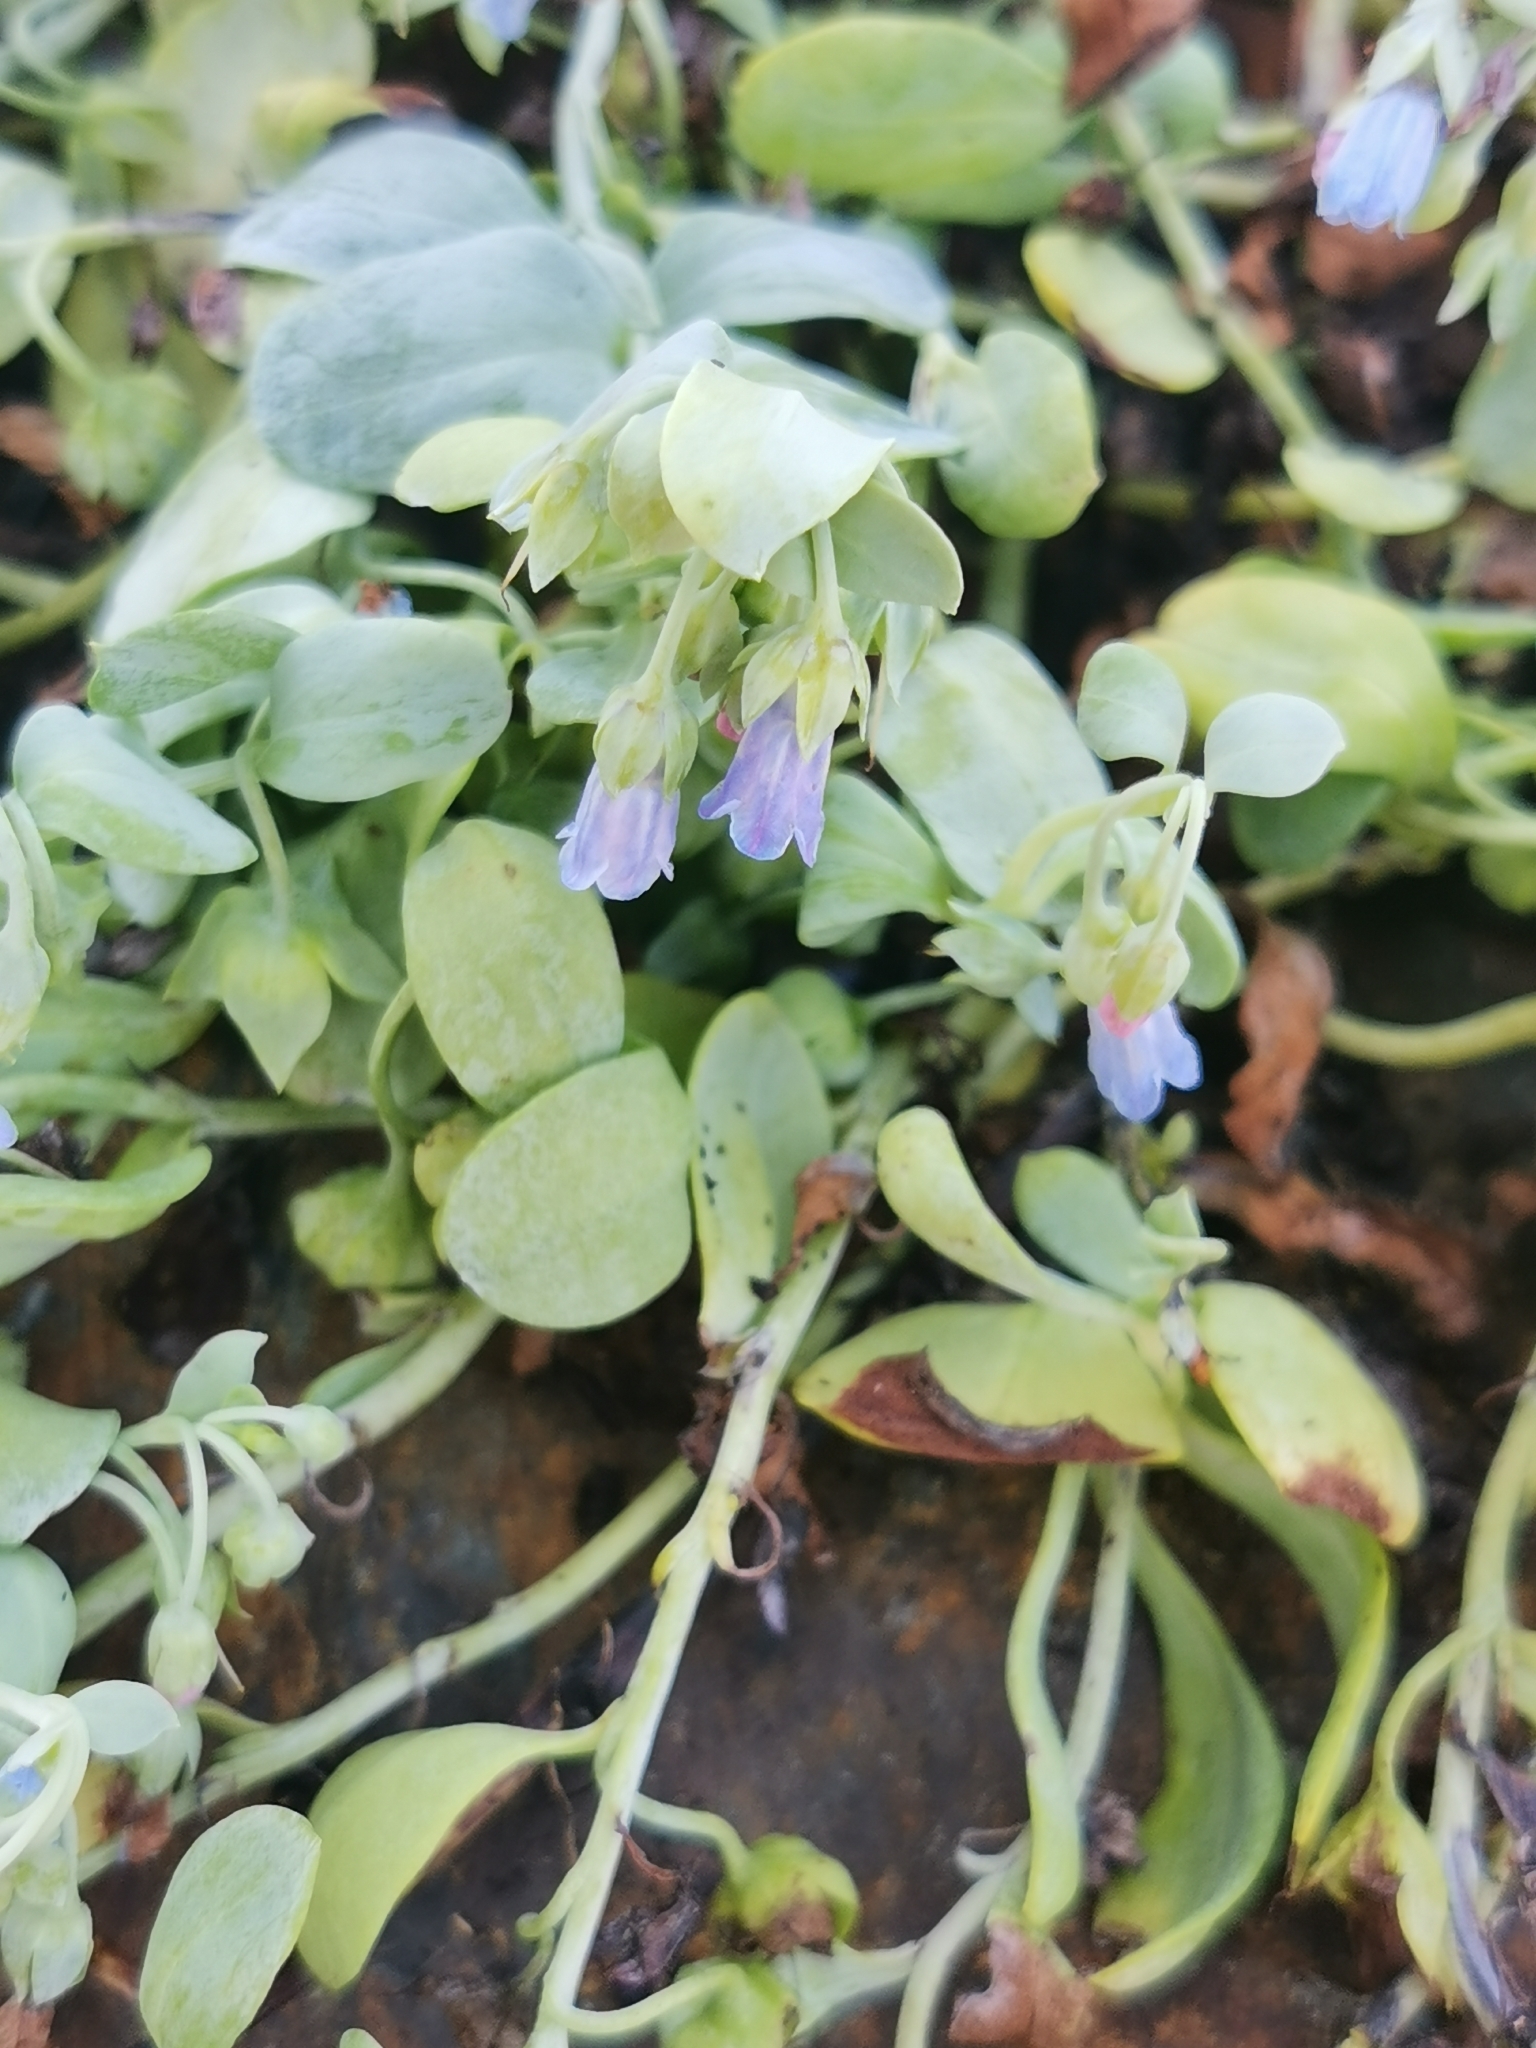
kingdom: Plantae
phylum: Tracheophyta
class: Magnoliopsida
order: Boraginales
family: Boraginaceae
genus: Mertensia
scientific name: Mertensia simplicissima
